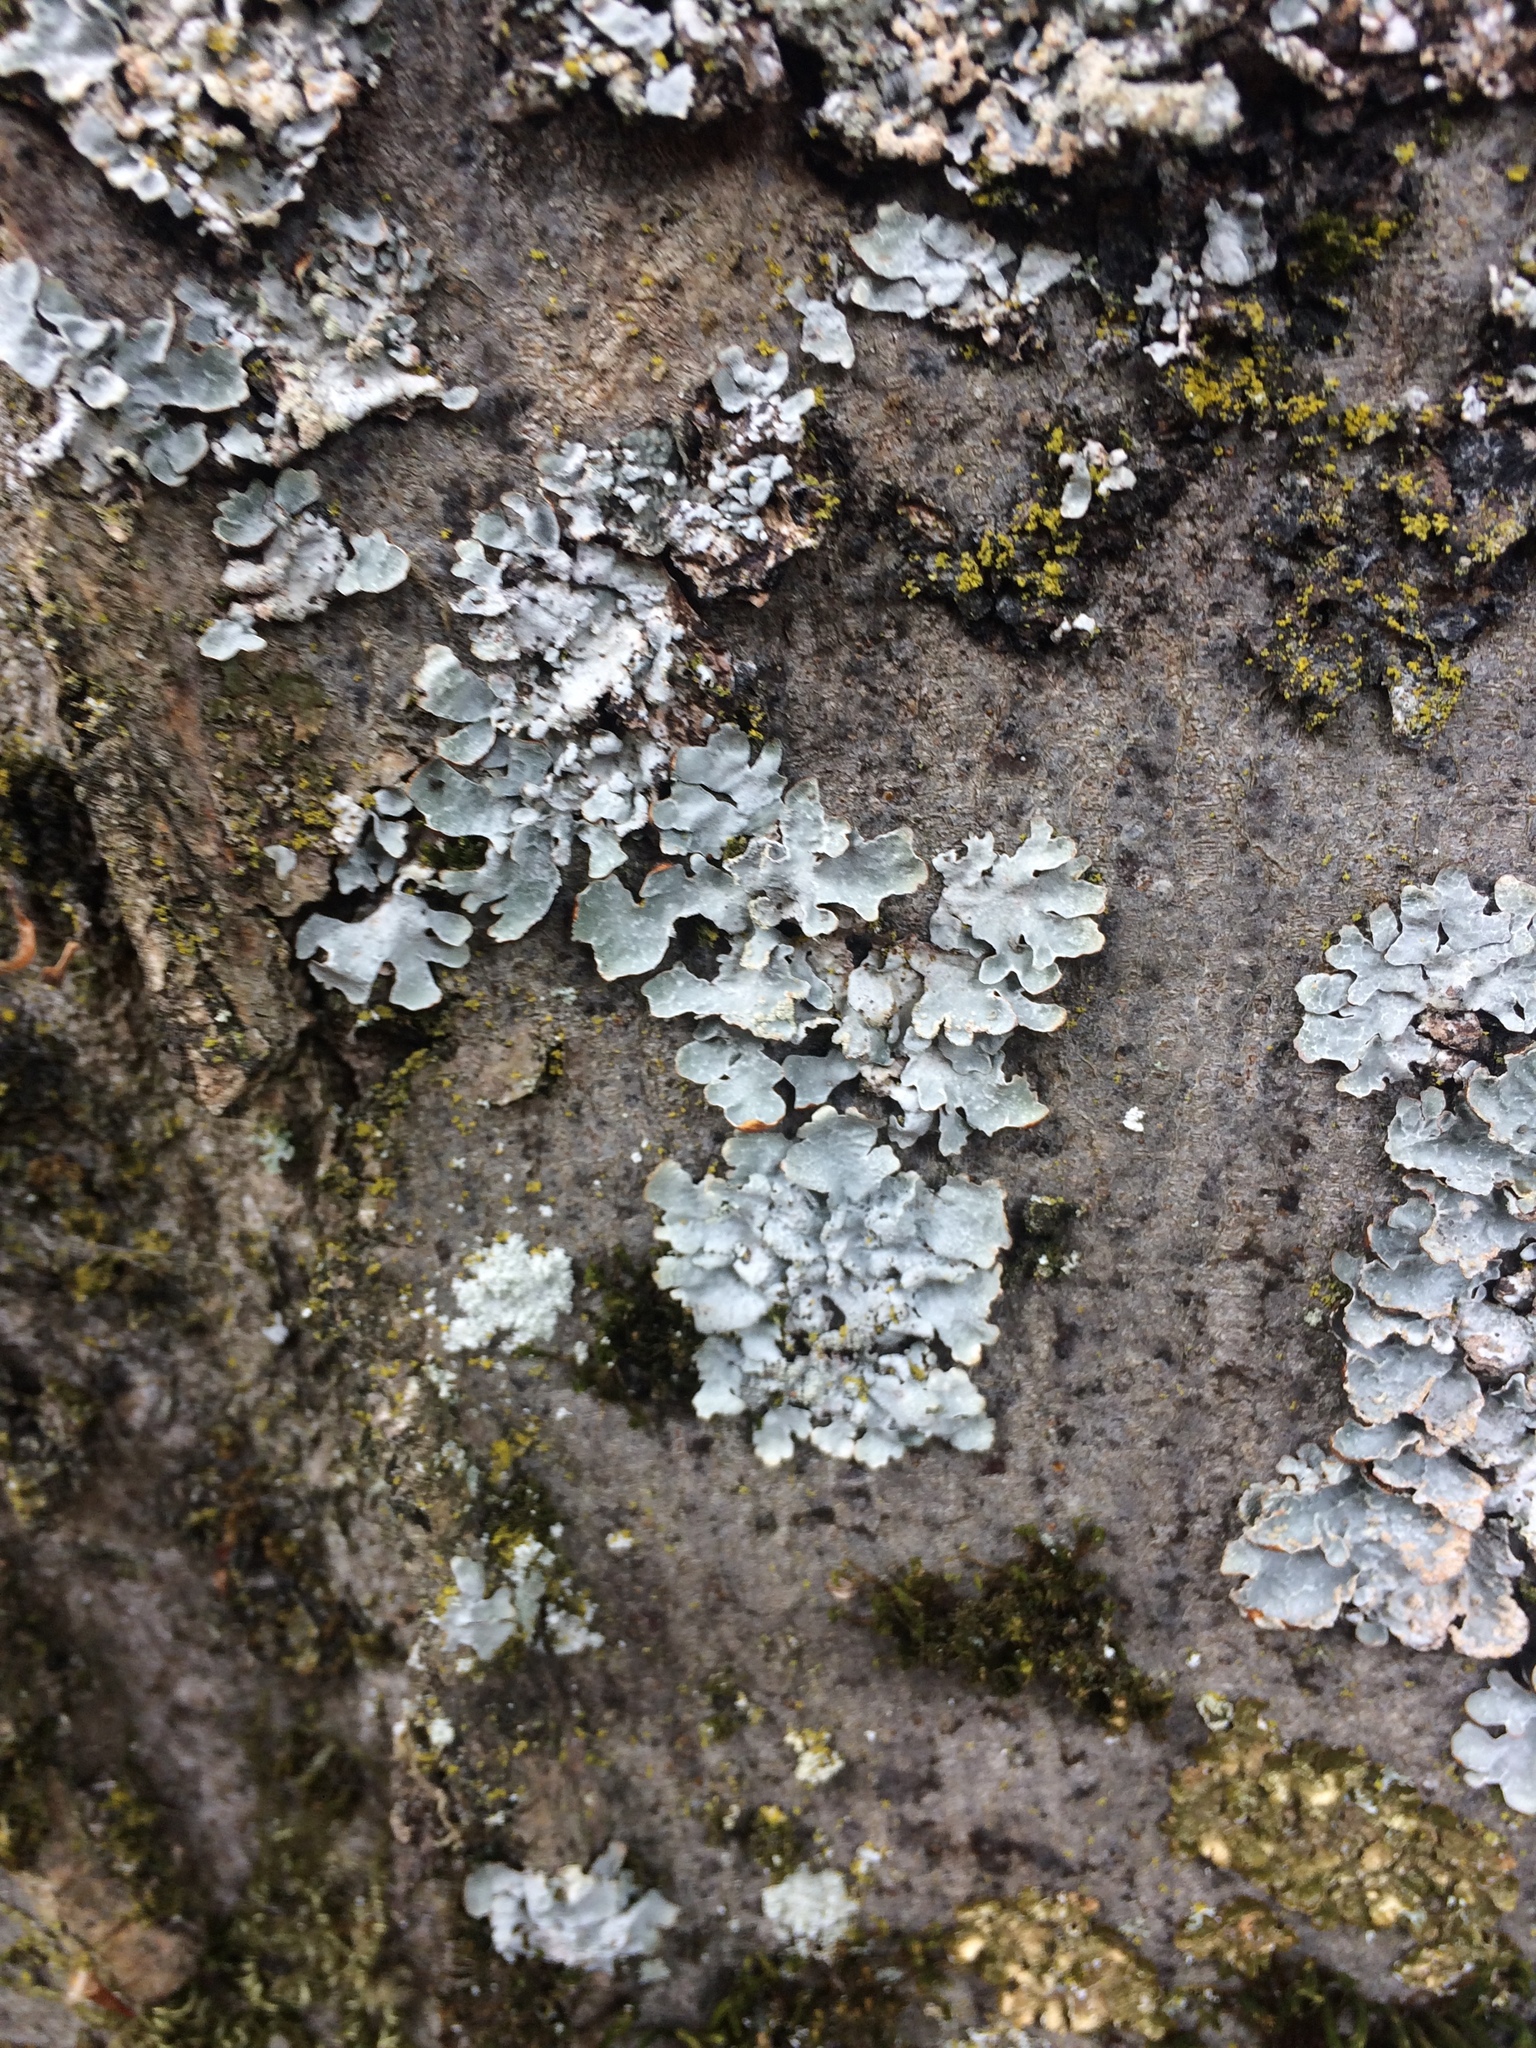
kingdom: Fungi
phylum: Ascomycota
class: Lecanoromycetes
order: Lecanorales
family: Parmeliaceae
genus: Parmelia
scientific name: Parmelia sulcata
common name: Netted shield lichen
